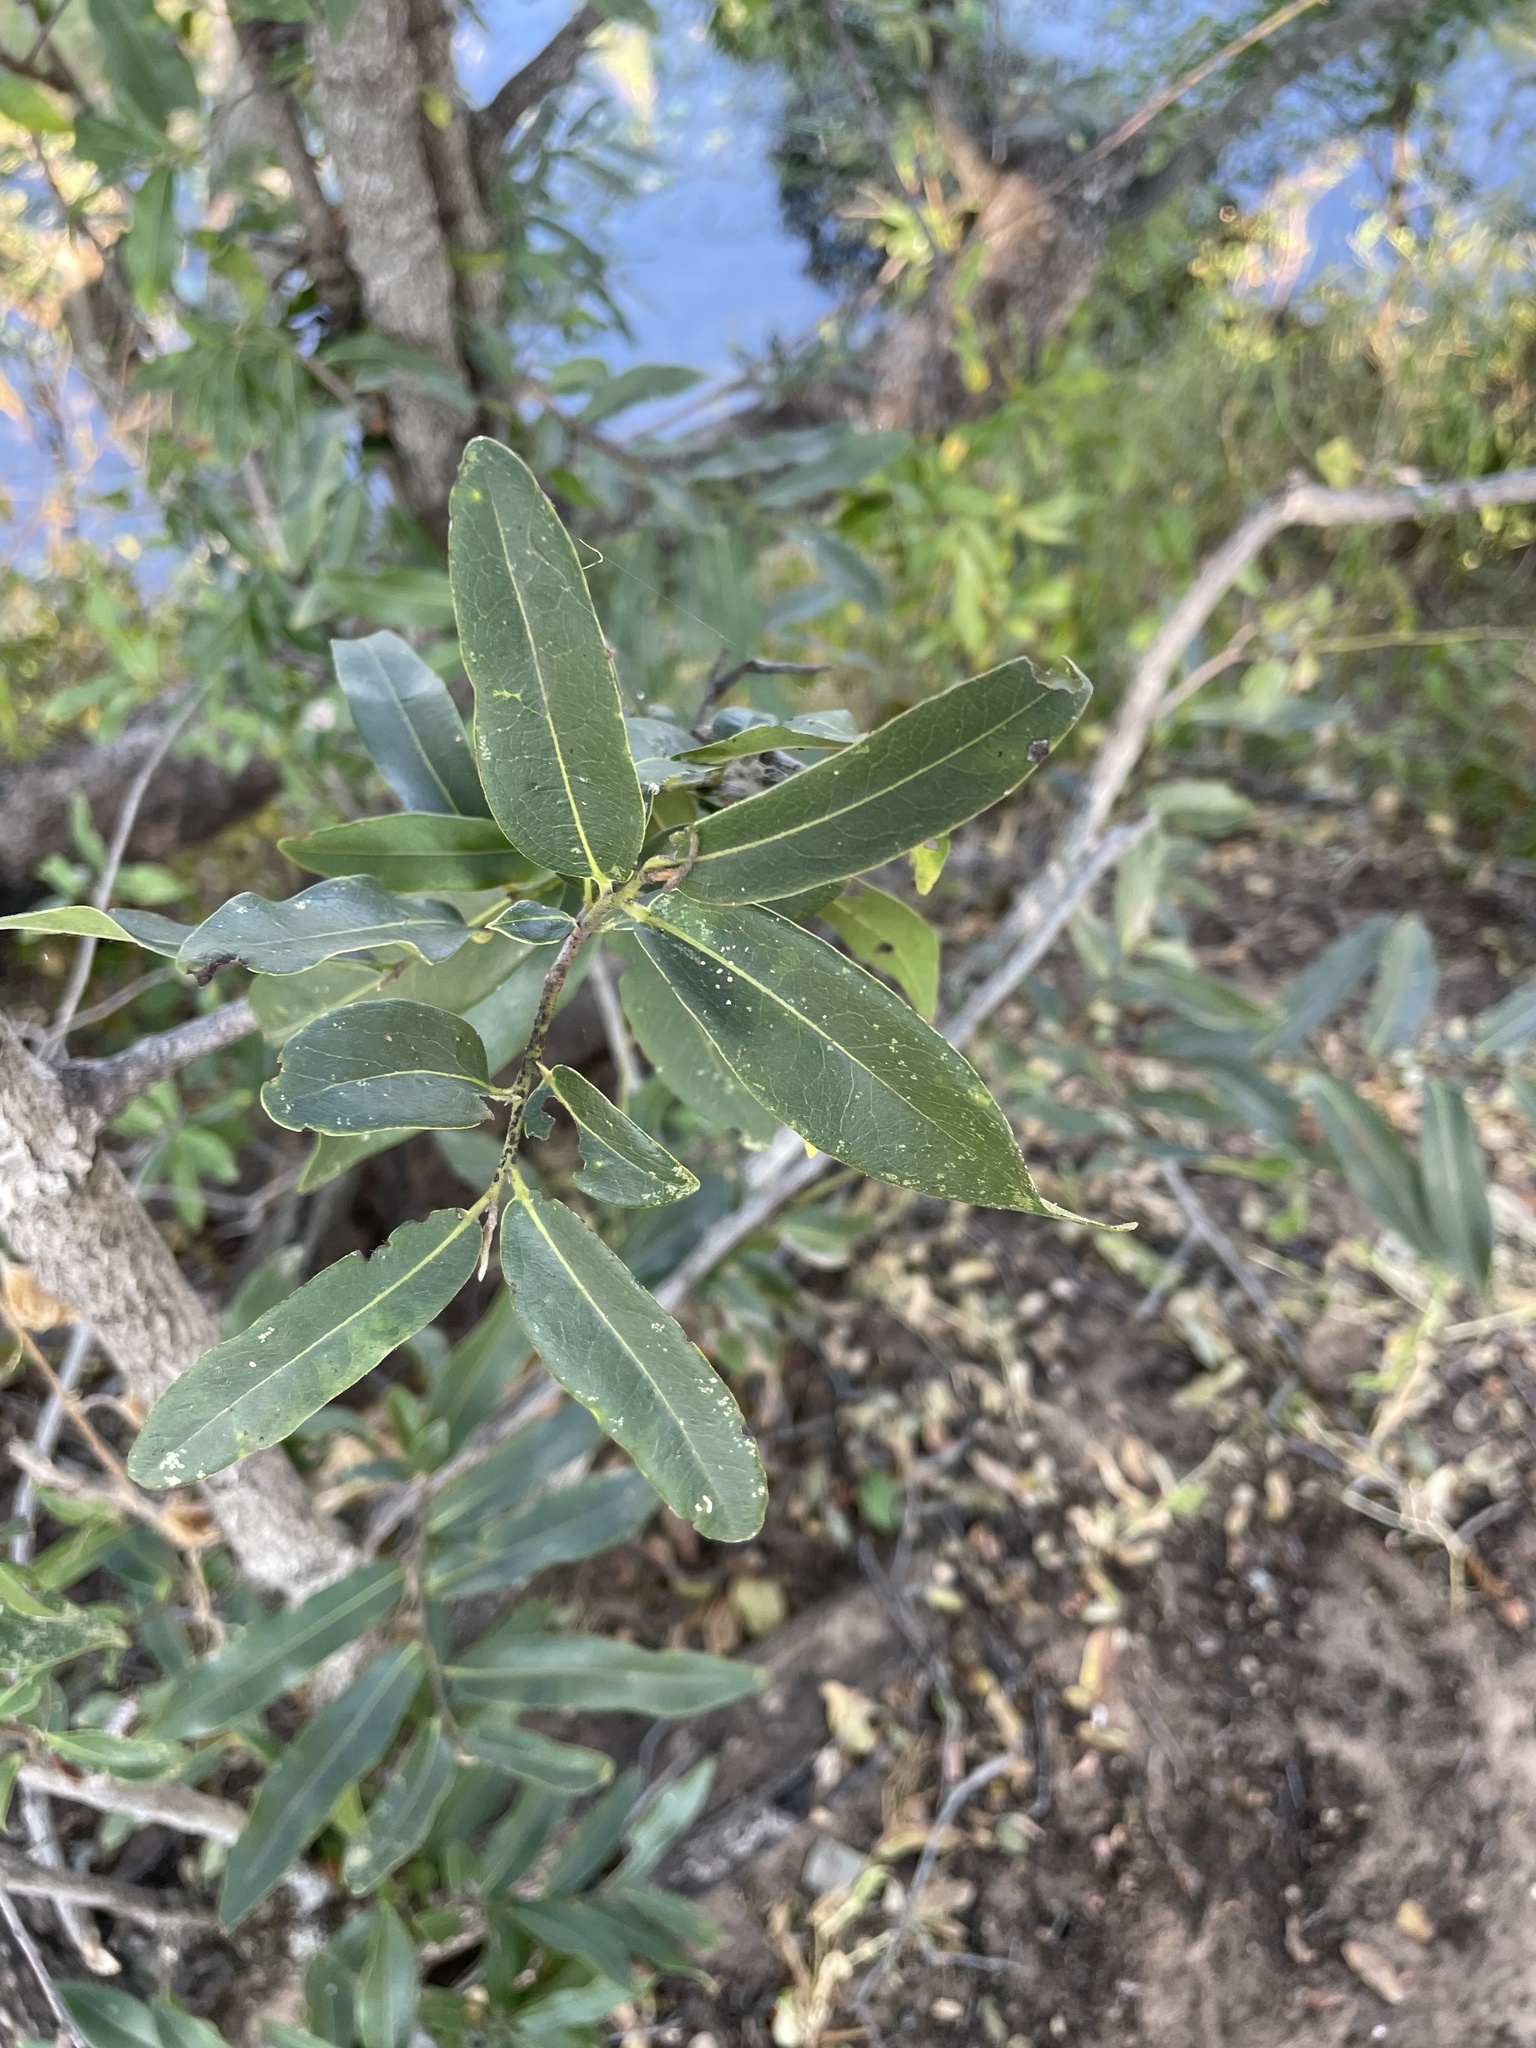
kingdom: Plantae
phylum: Tracheophyta
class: Magnoliopsida
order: Ericales
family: Ebenaceae
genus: Diospyros
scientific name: Diospyros mespiliformis
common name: Ebony diospyros
